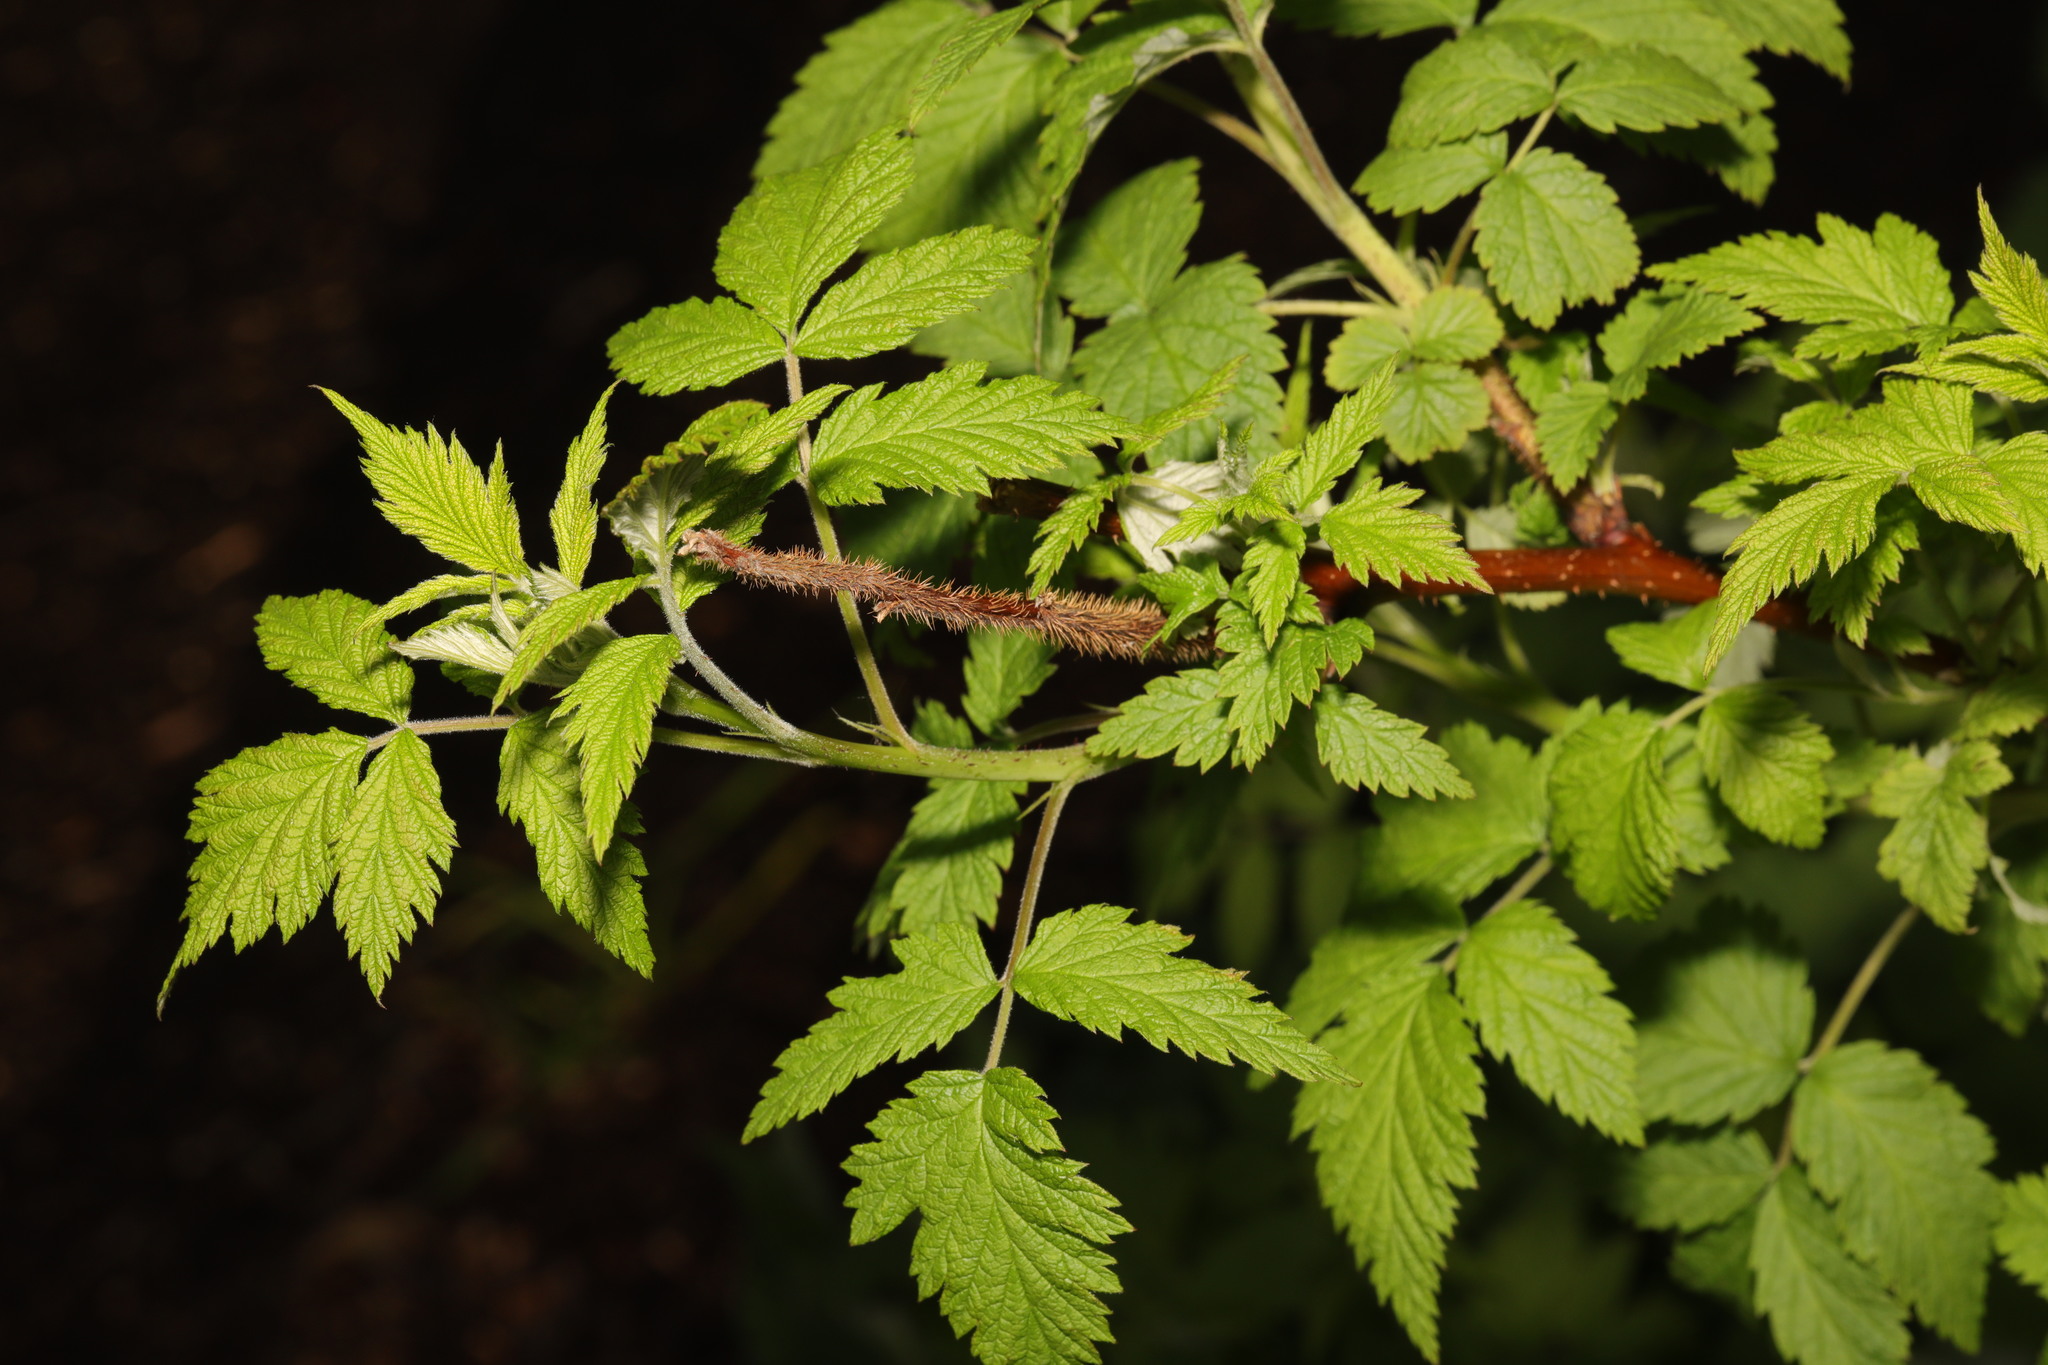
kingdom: Plantae
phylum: Tracheophyta
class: Magnoliopsida
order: Rosales
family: Rosaceae
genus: Rubus
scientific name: Rubus idaeus
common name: Raspberry
